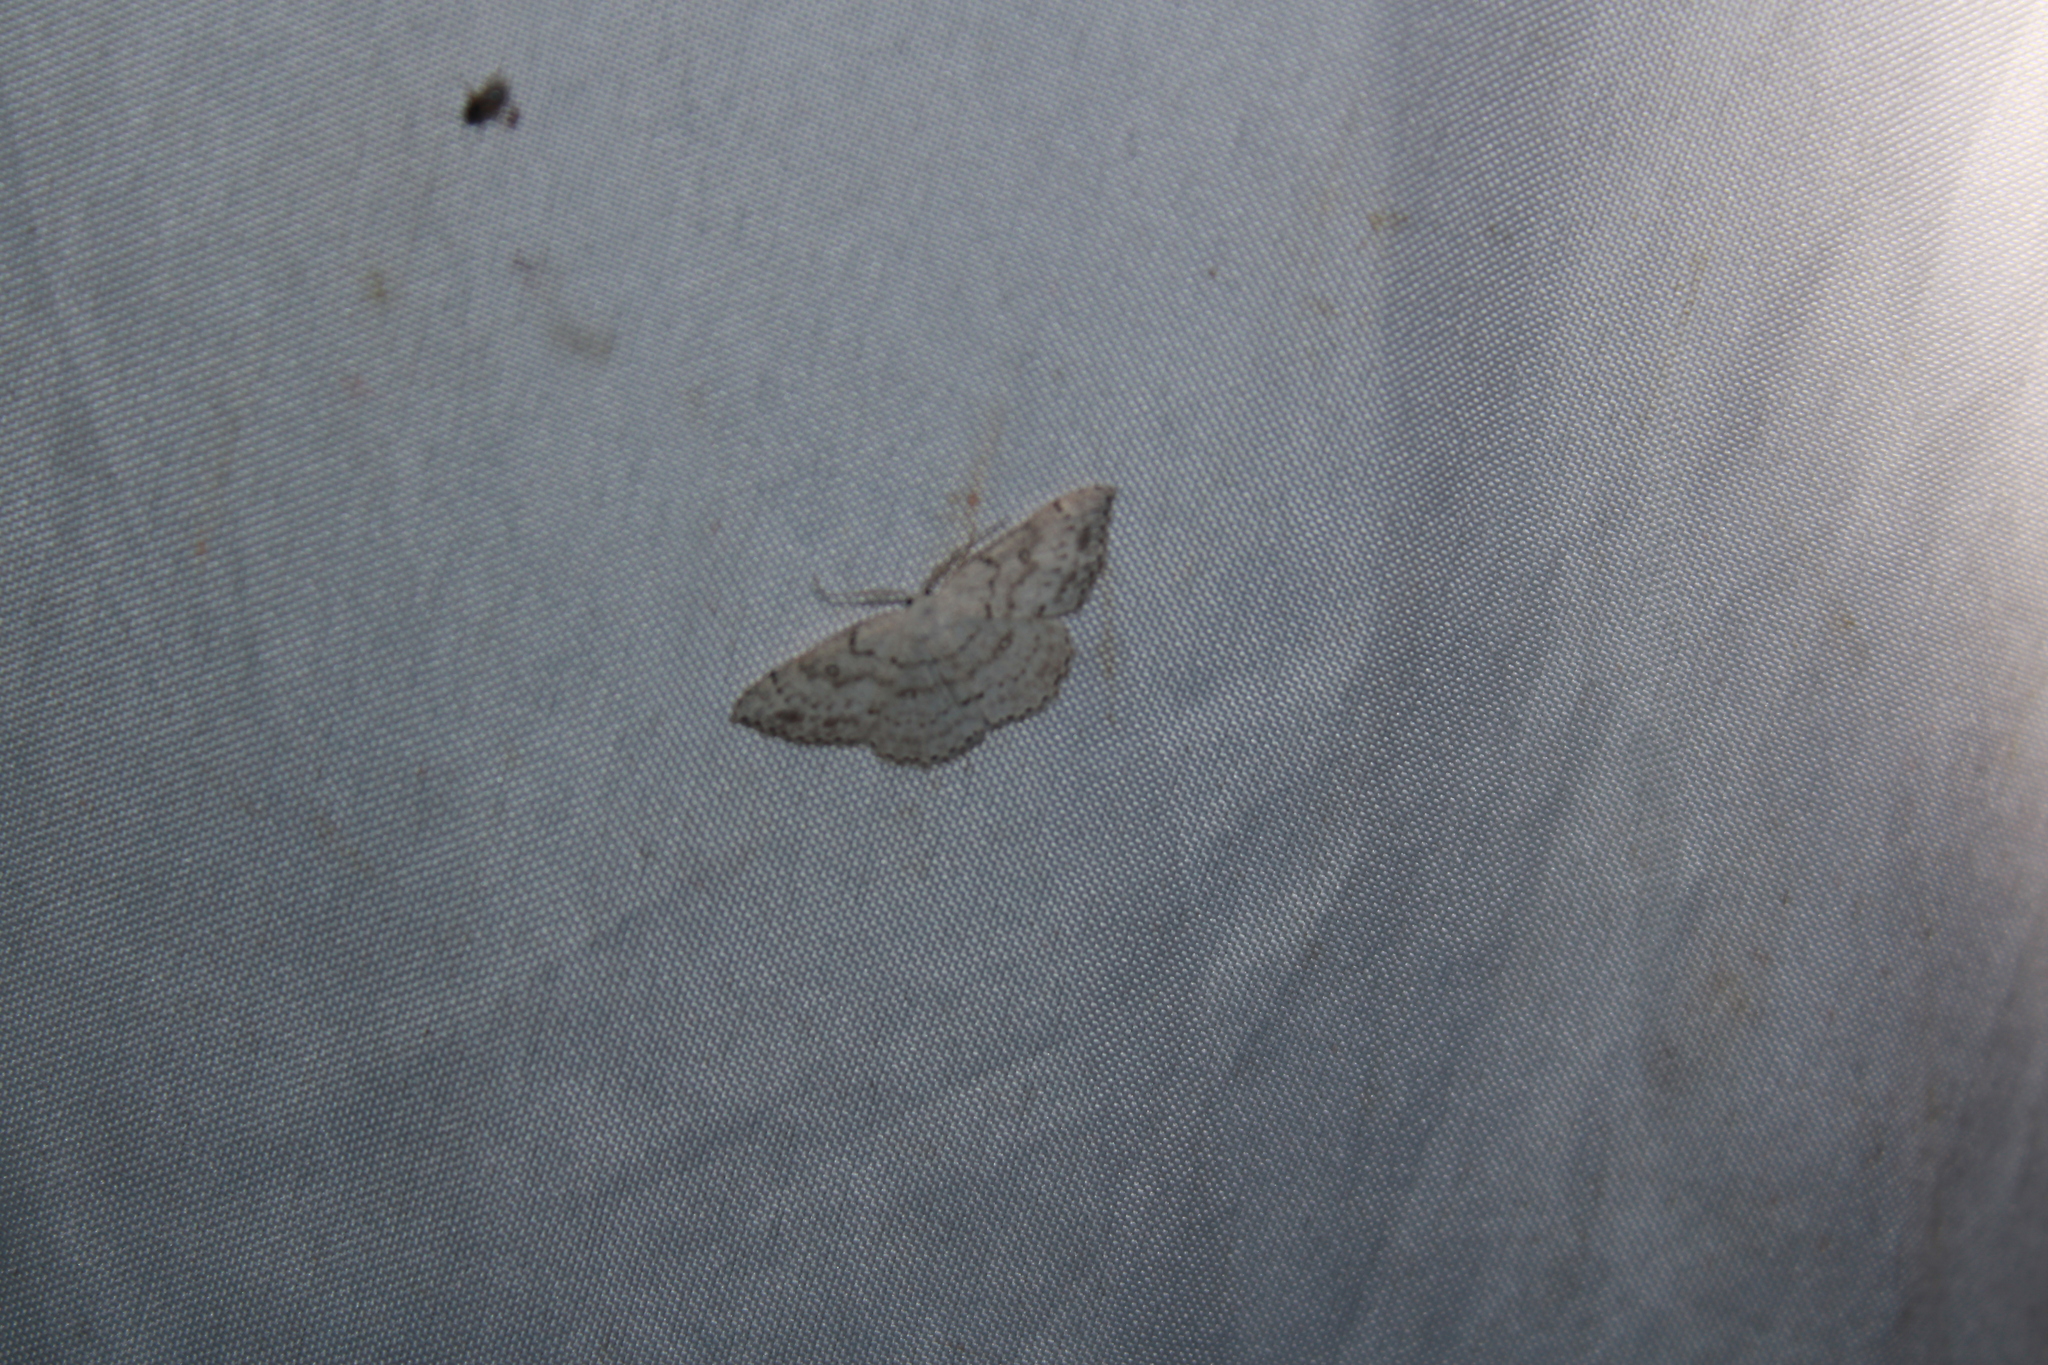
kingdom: Animalia
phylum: Arthropoda
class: Insecta
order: Lepidoptera
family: Geometridae
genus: Cyclophora
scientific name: Cyclophora pendulinaria
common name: Sweet fern geometer
